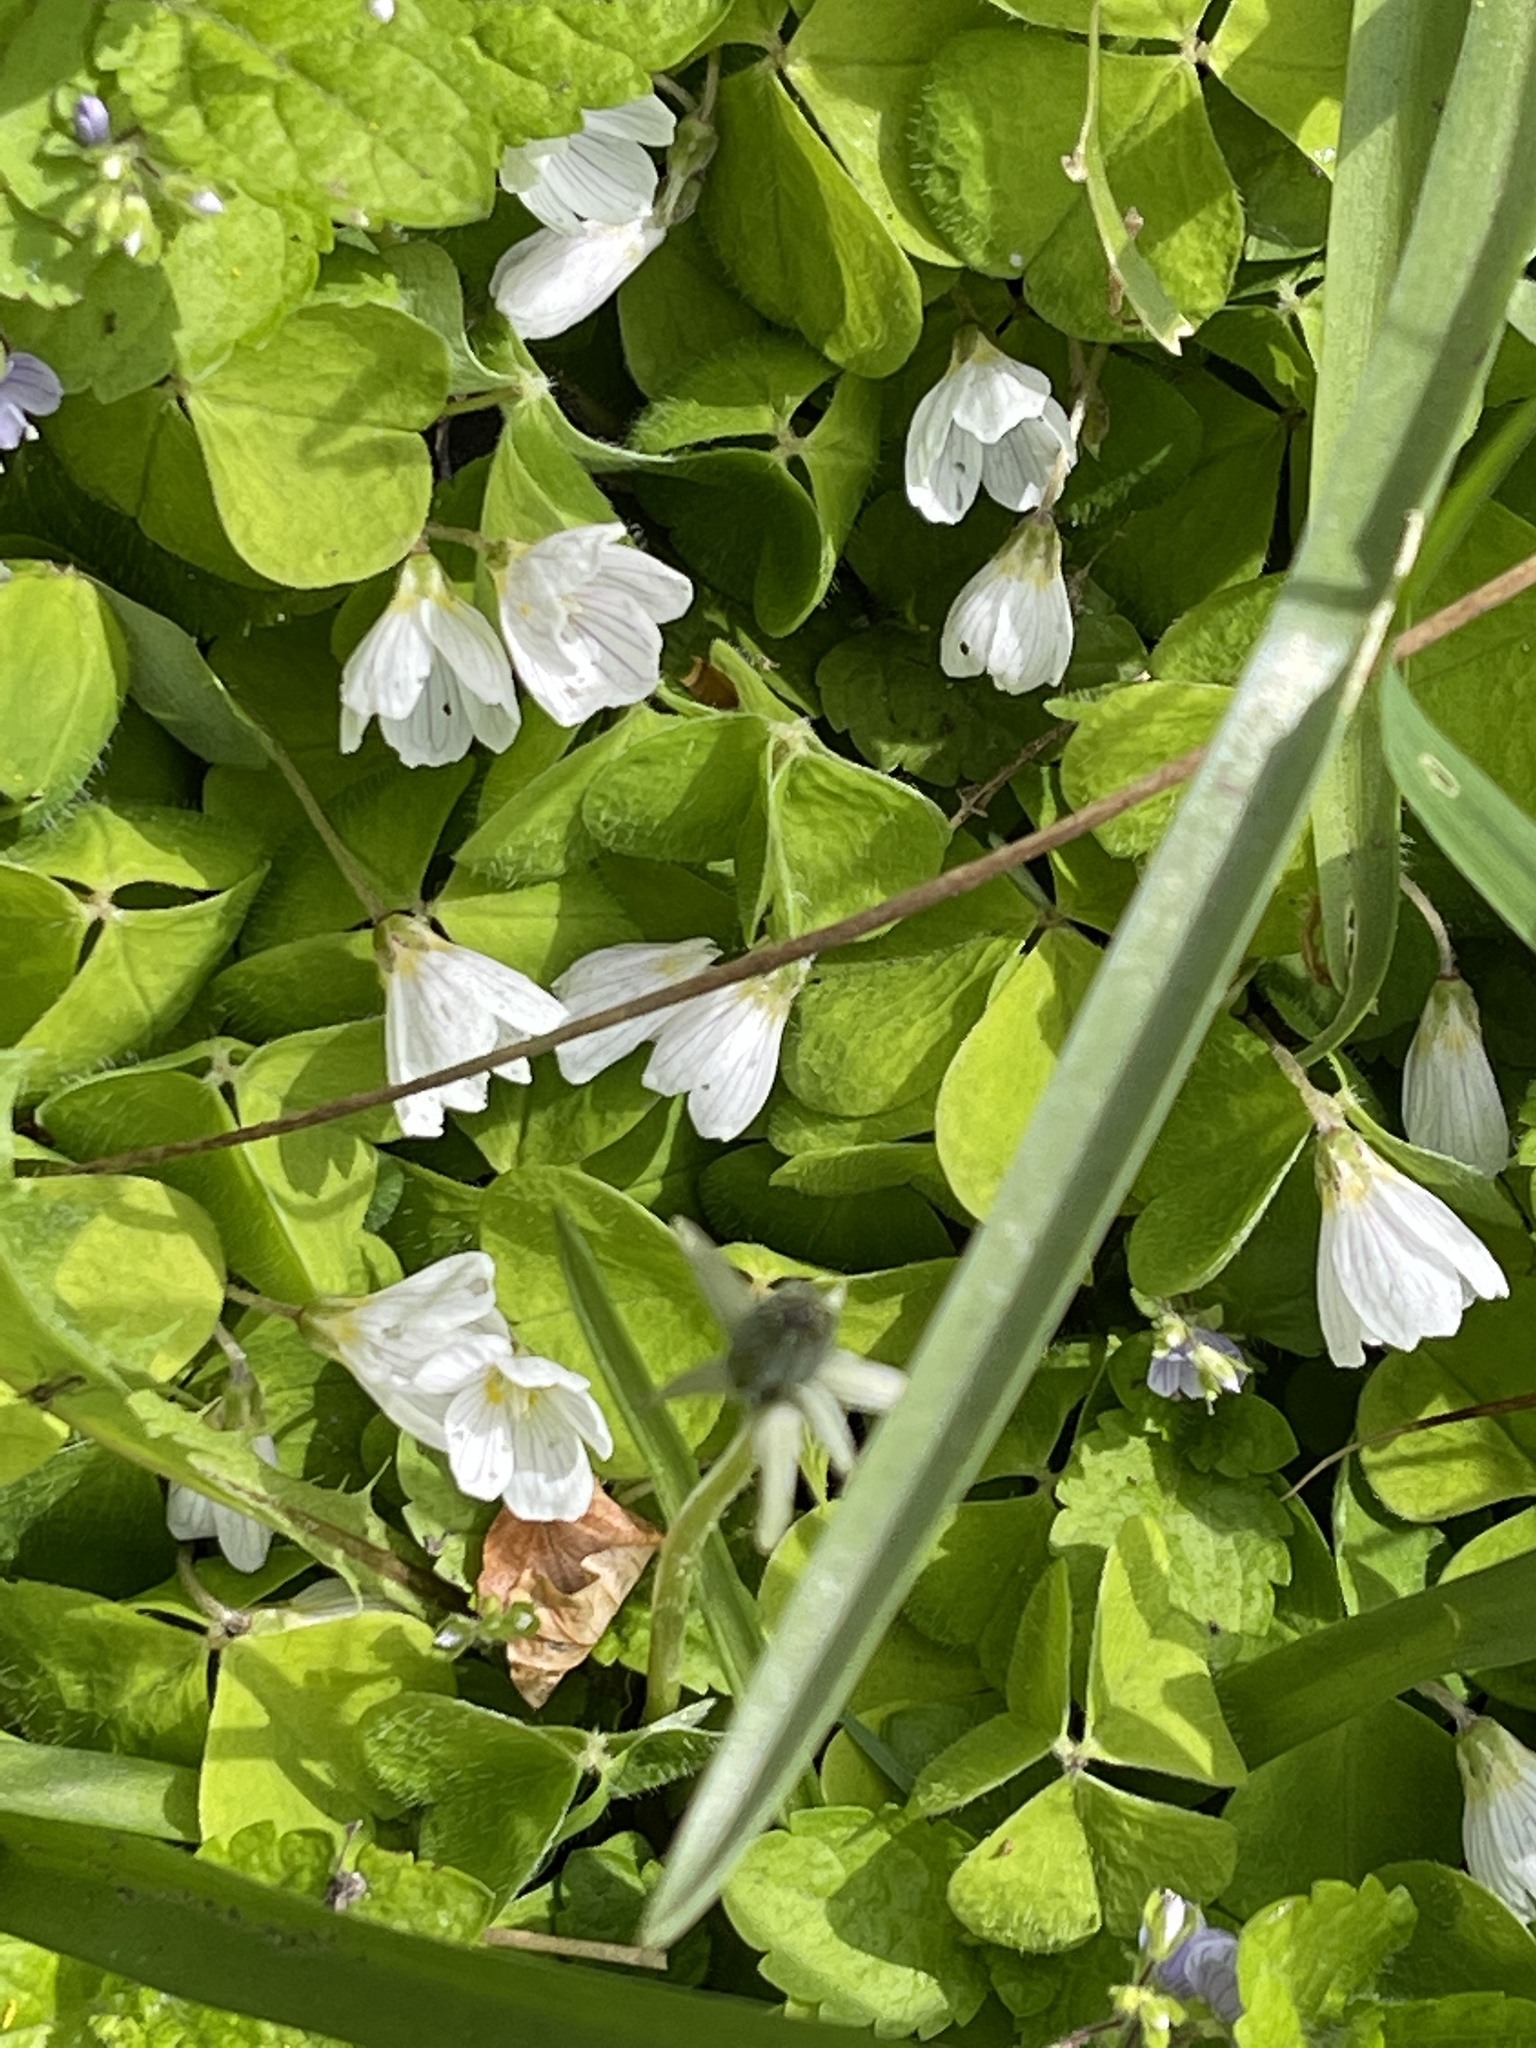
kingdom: Plantae
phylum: Tracheophyta
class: Magnoliopsida
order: Oxalidales
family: Oxalidaceae
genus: Oxalis
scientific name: Oxalis acetosella
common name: Wood-sorrel
